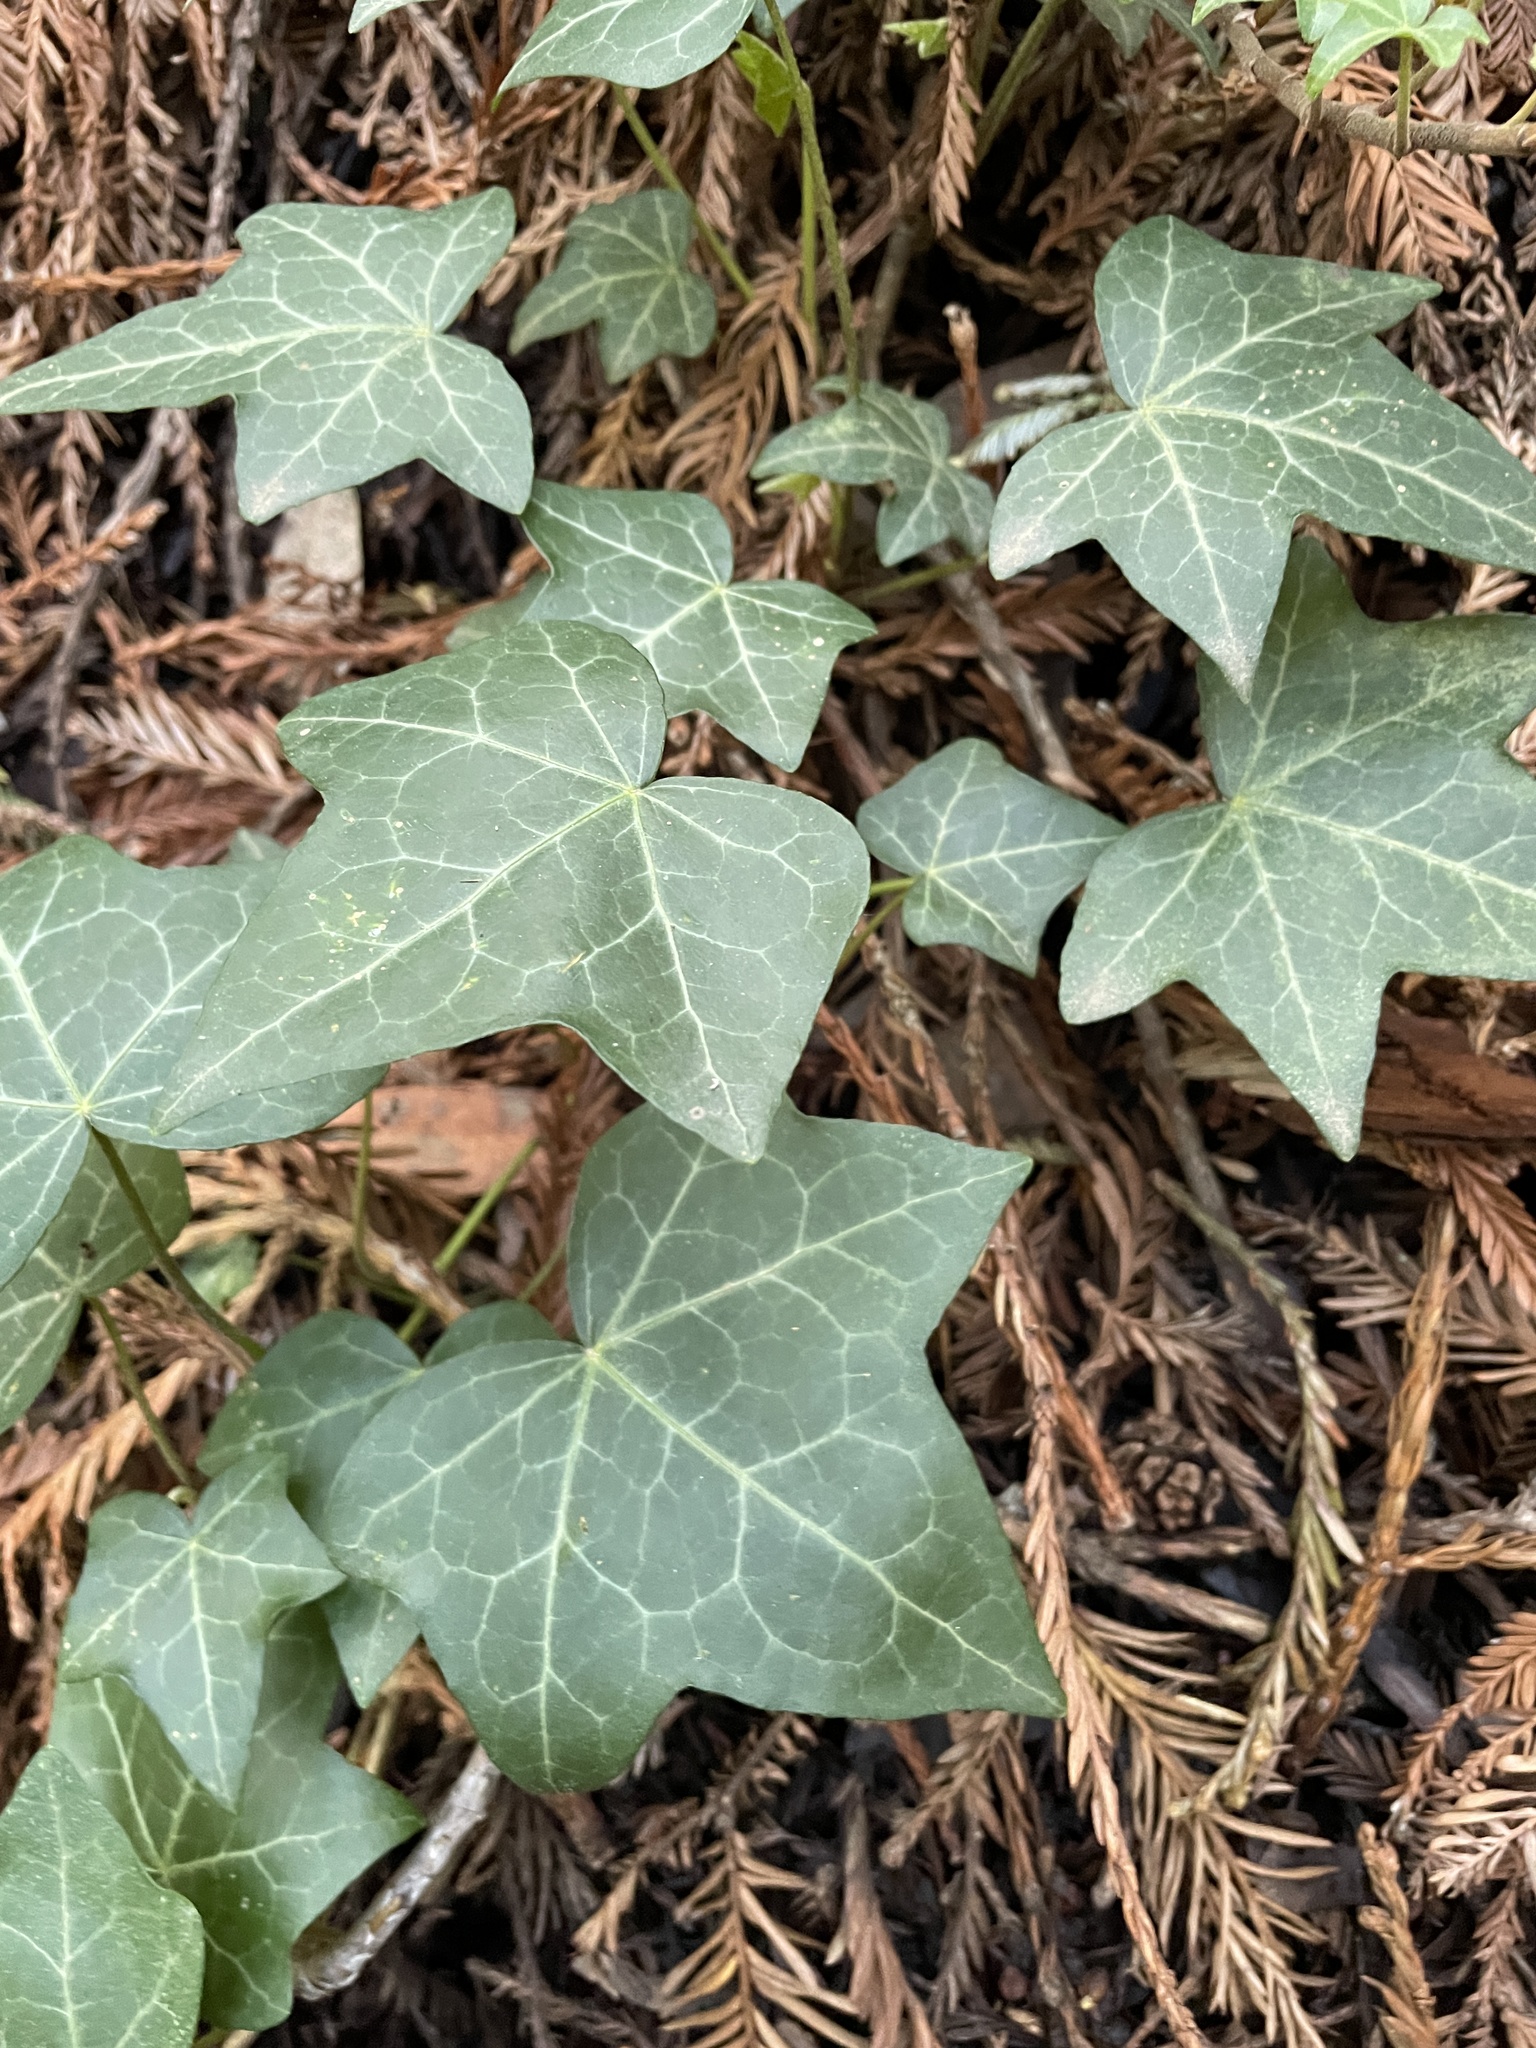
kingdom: Plantae
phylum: Tracheophyta
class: Magnoliopsida
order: Apiales
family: Araliaceae
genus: Hedera
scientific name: Hedera helix
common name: Ivy
